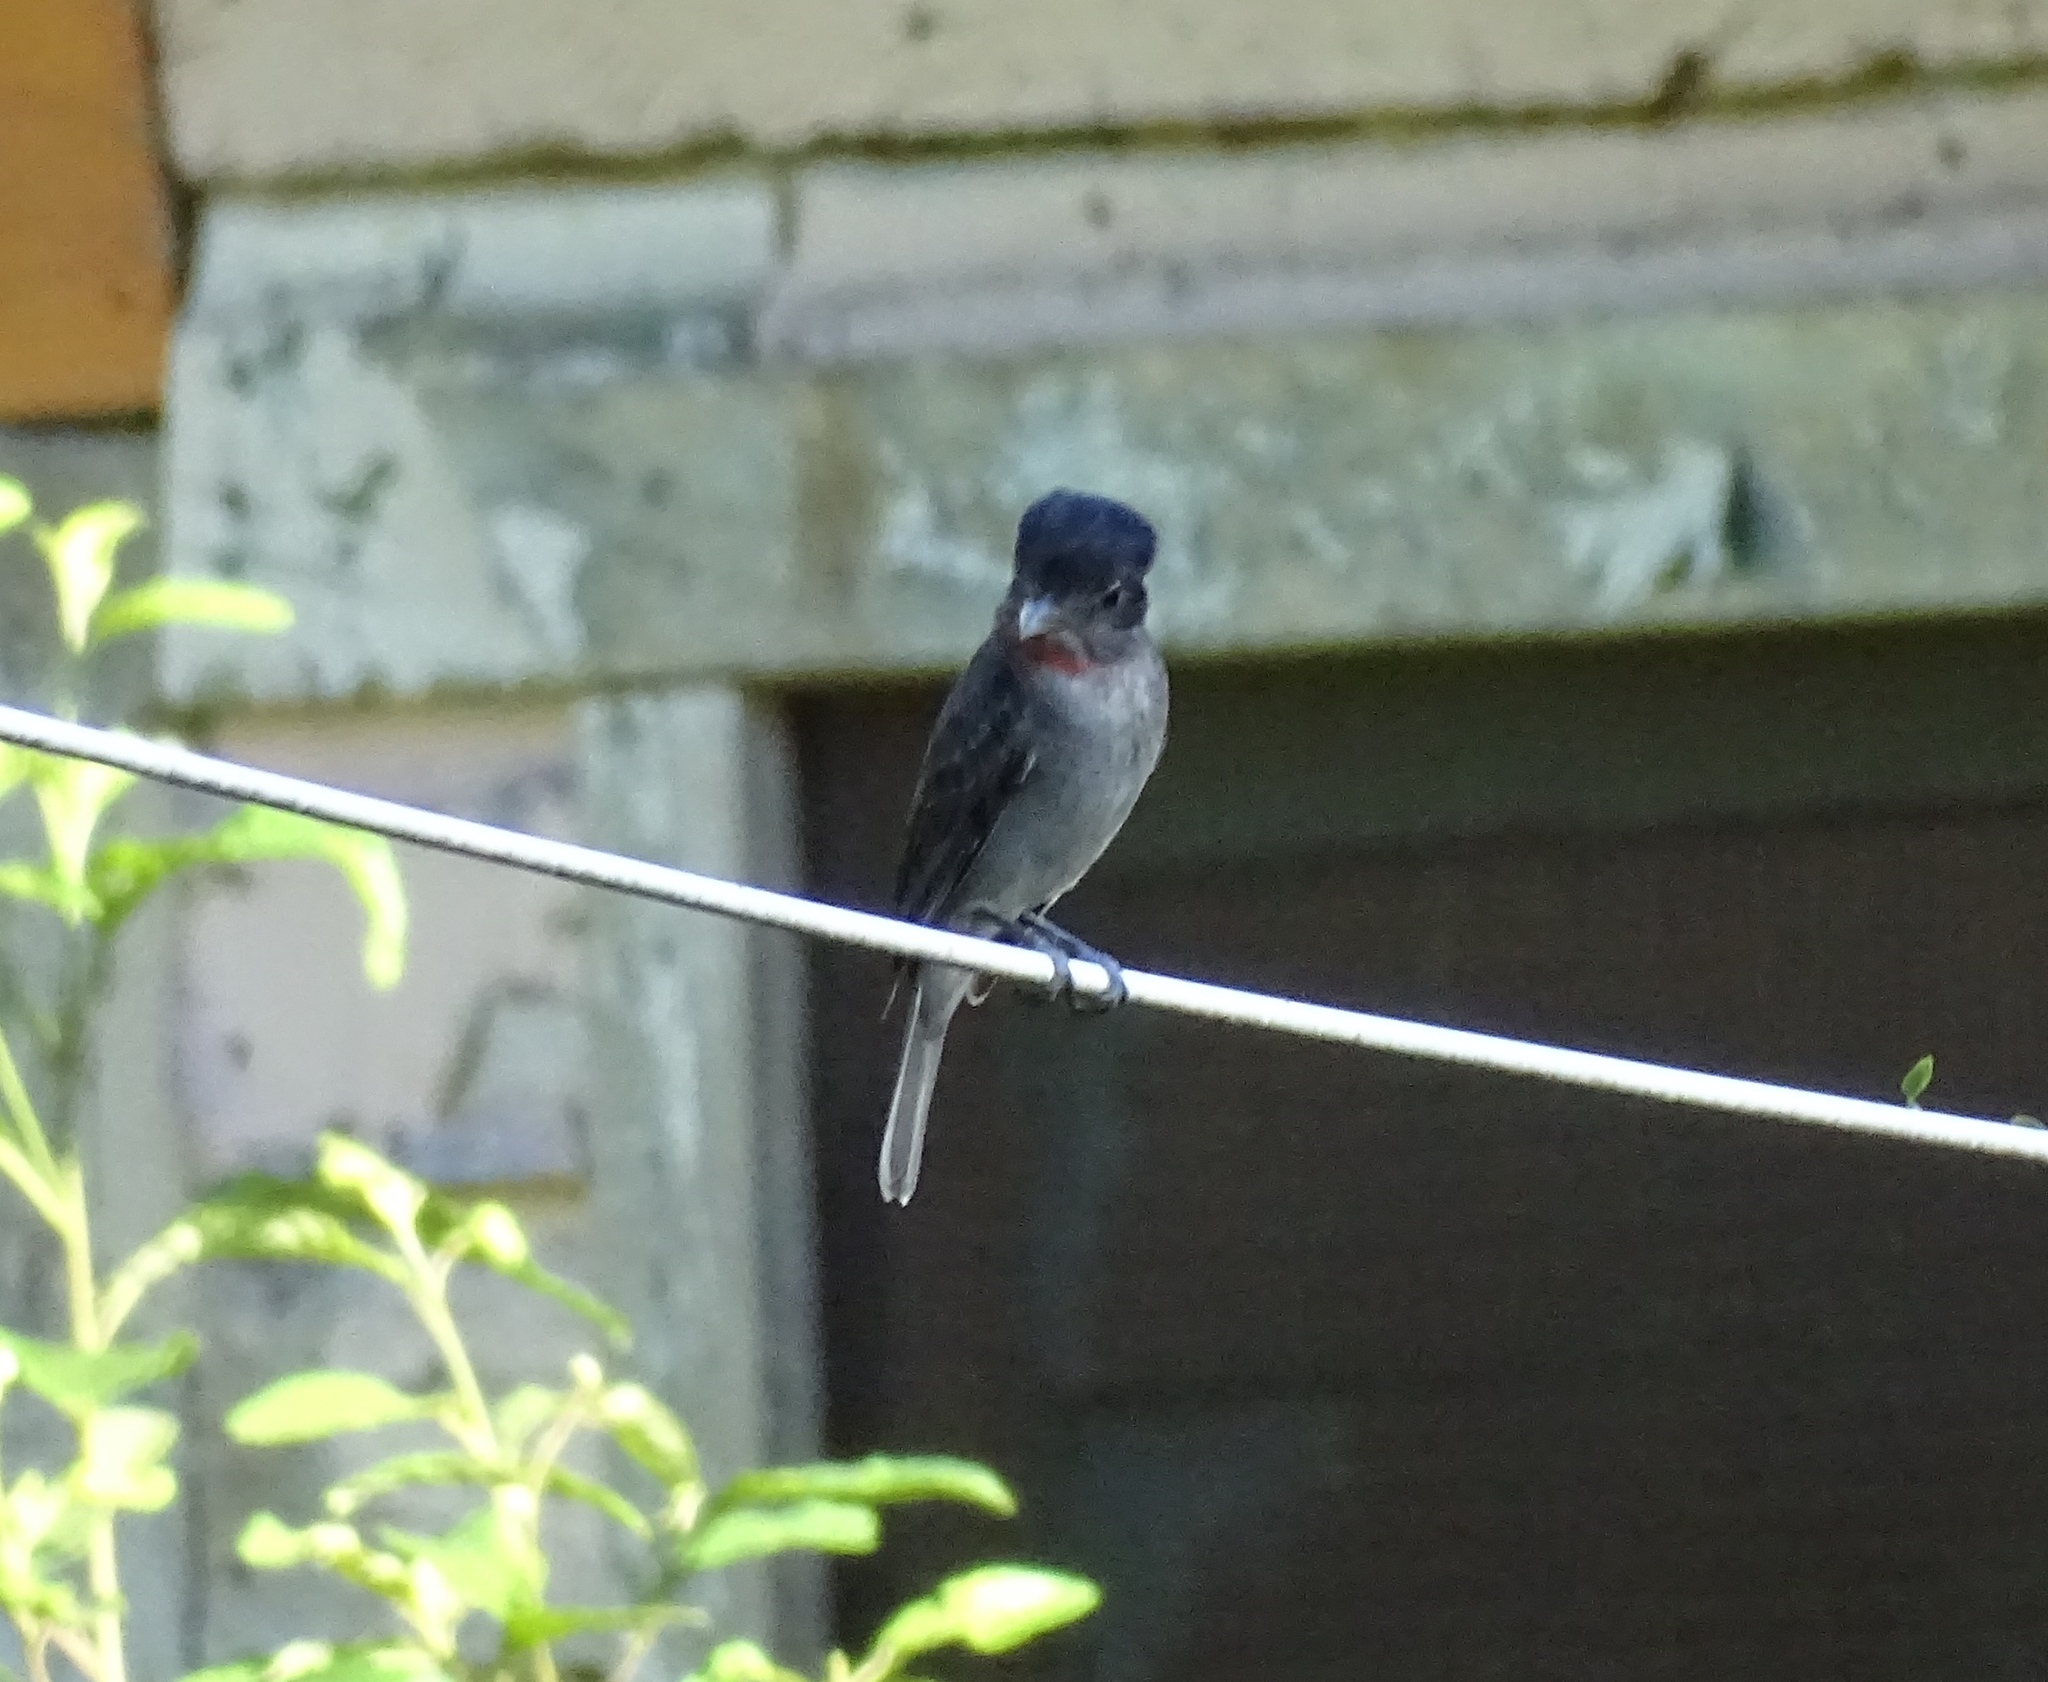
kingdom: Animalia
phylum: Chordata
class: Aves
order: Passeriformes
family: Cotingidae
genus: Pachyramphus
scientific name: Pachyramphus aglaiae
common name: Rose-throated becard
